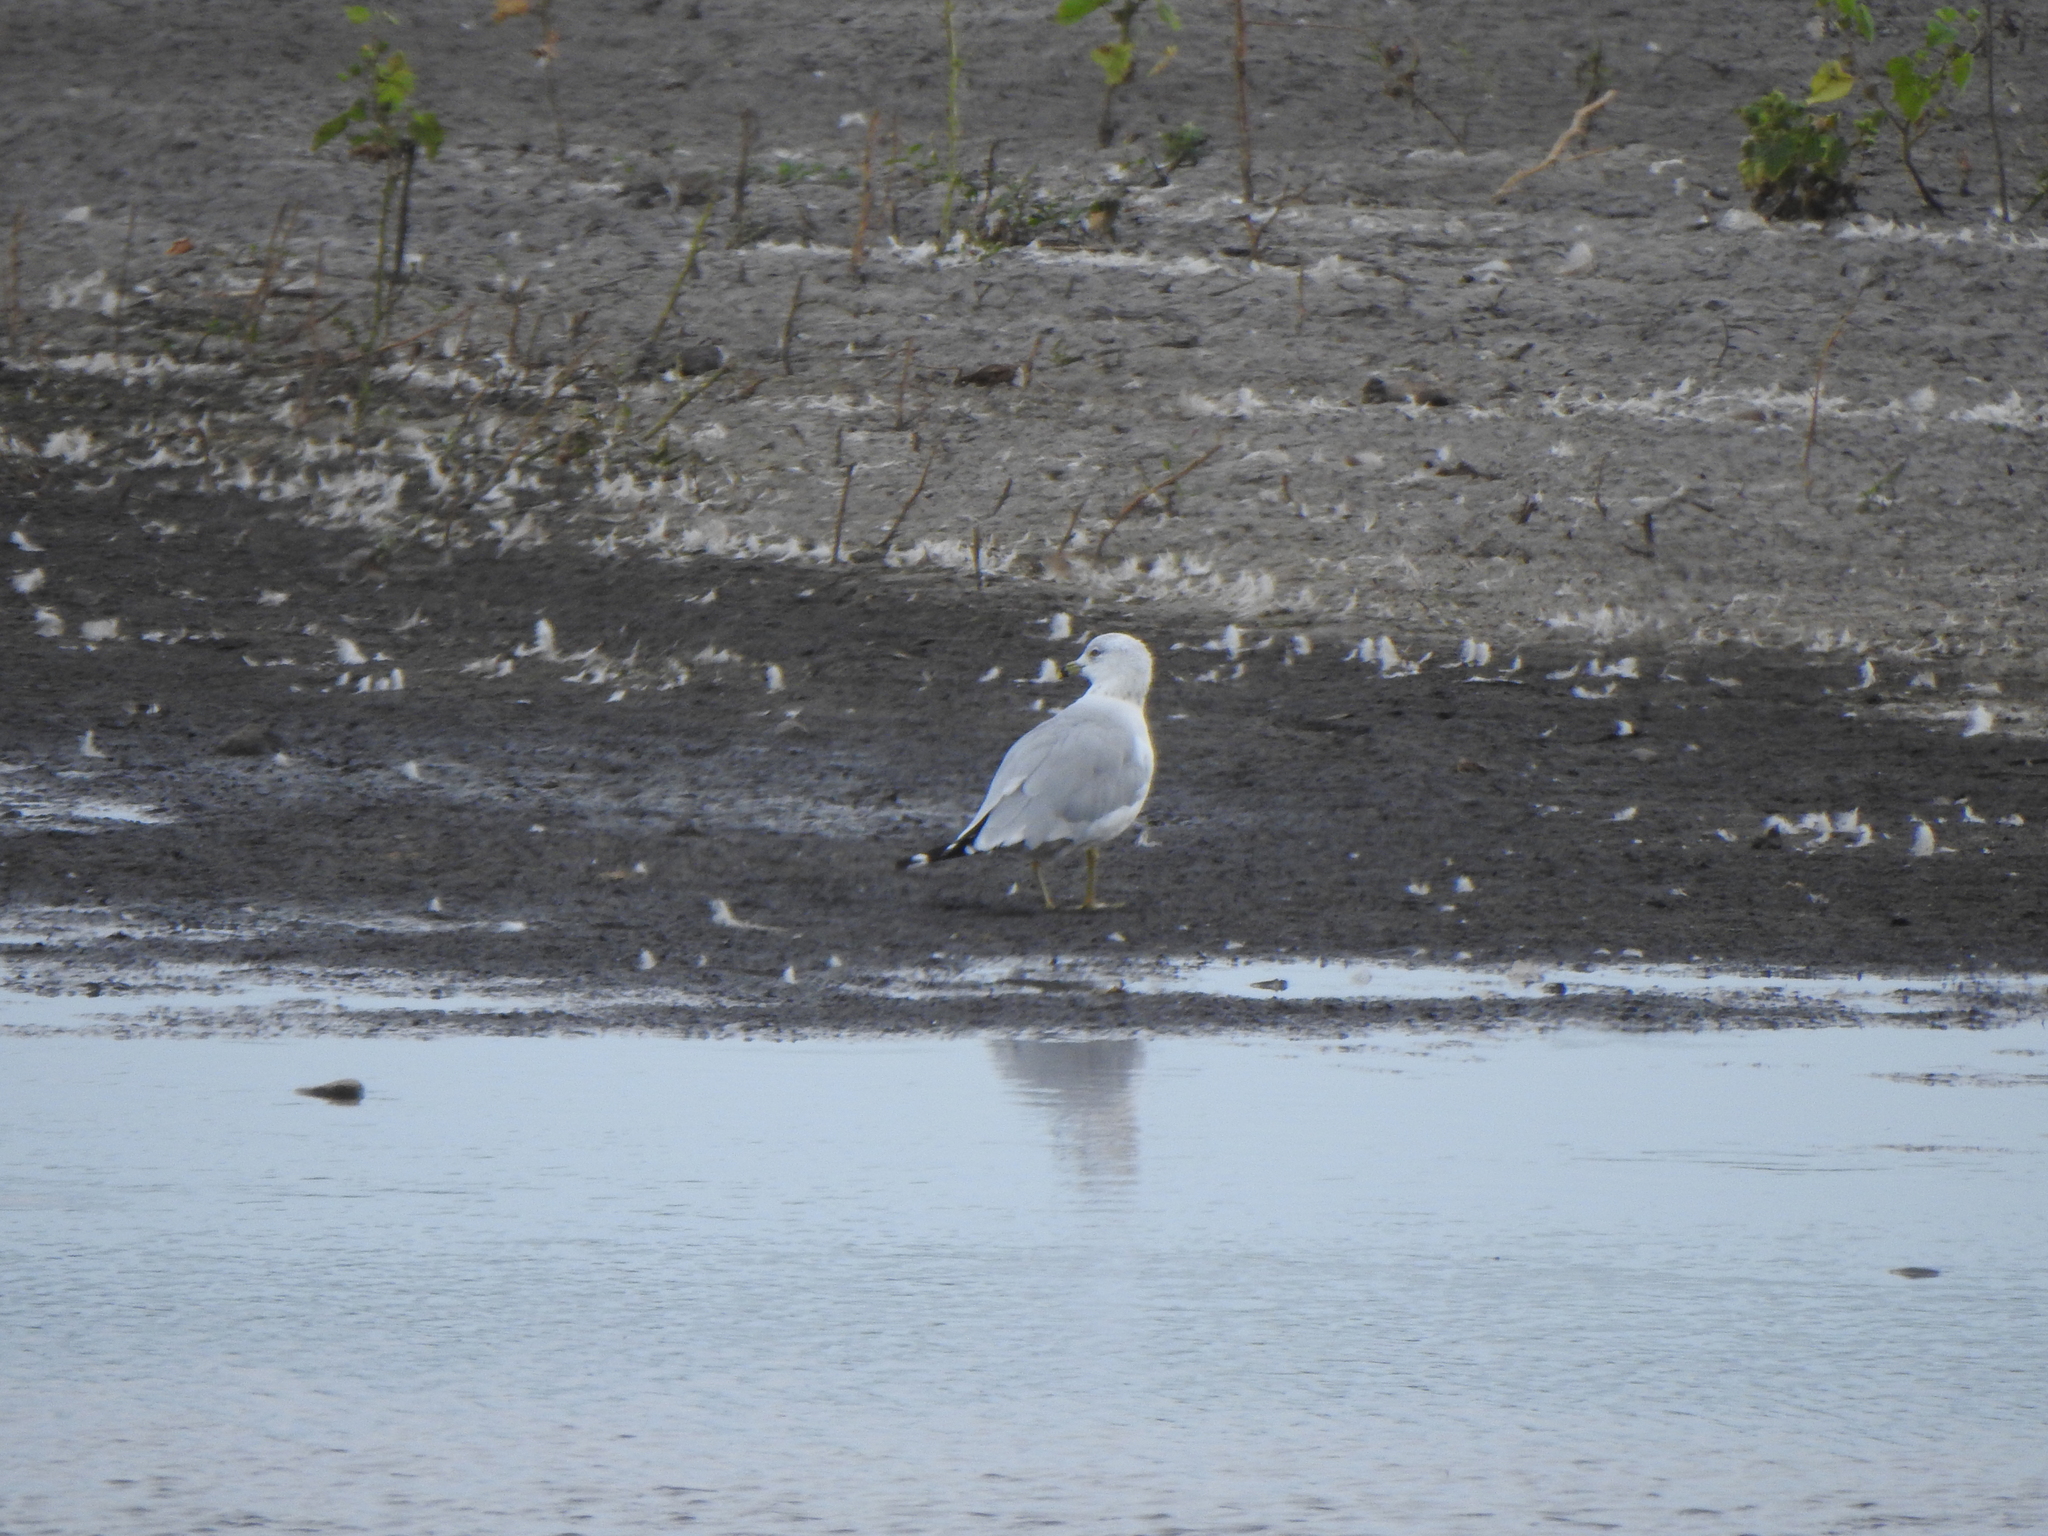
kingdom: Animalia
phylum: Chordata
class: Aves
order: Charadriiformes
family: Laridae
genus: Larus
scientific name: Larus delawarensis
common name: Ring-billed gull
